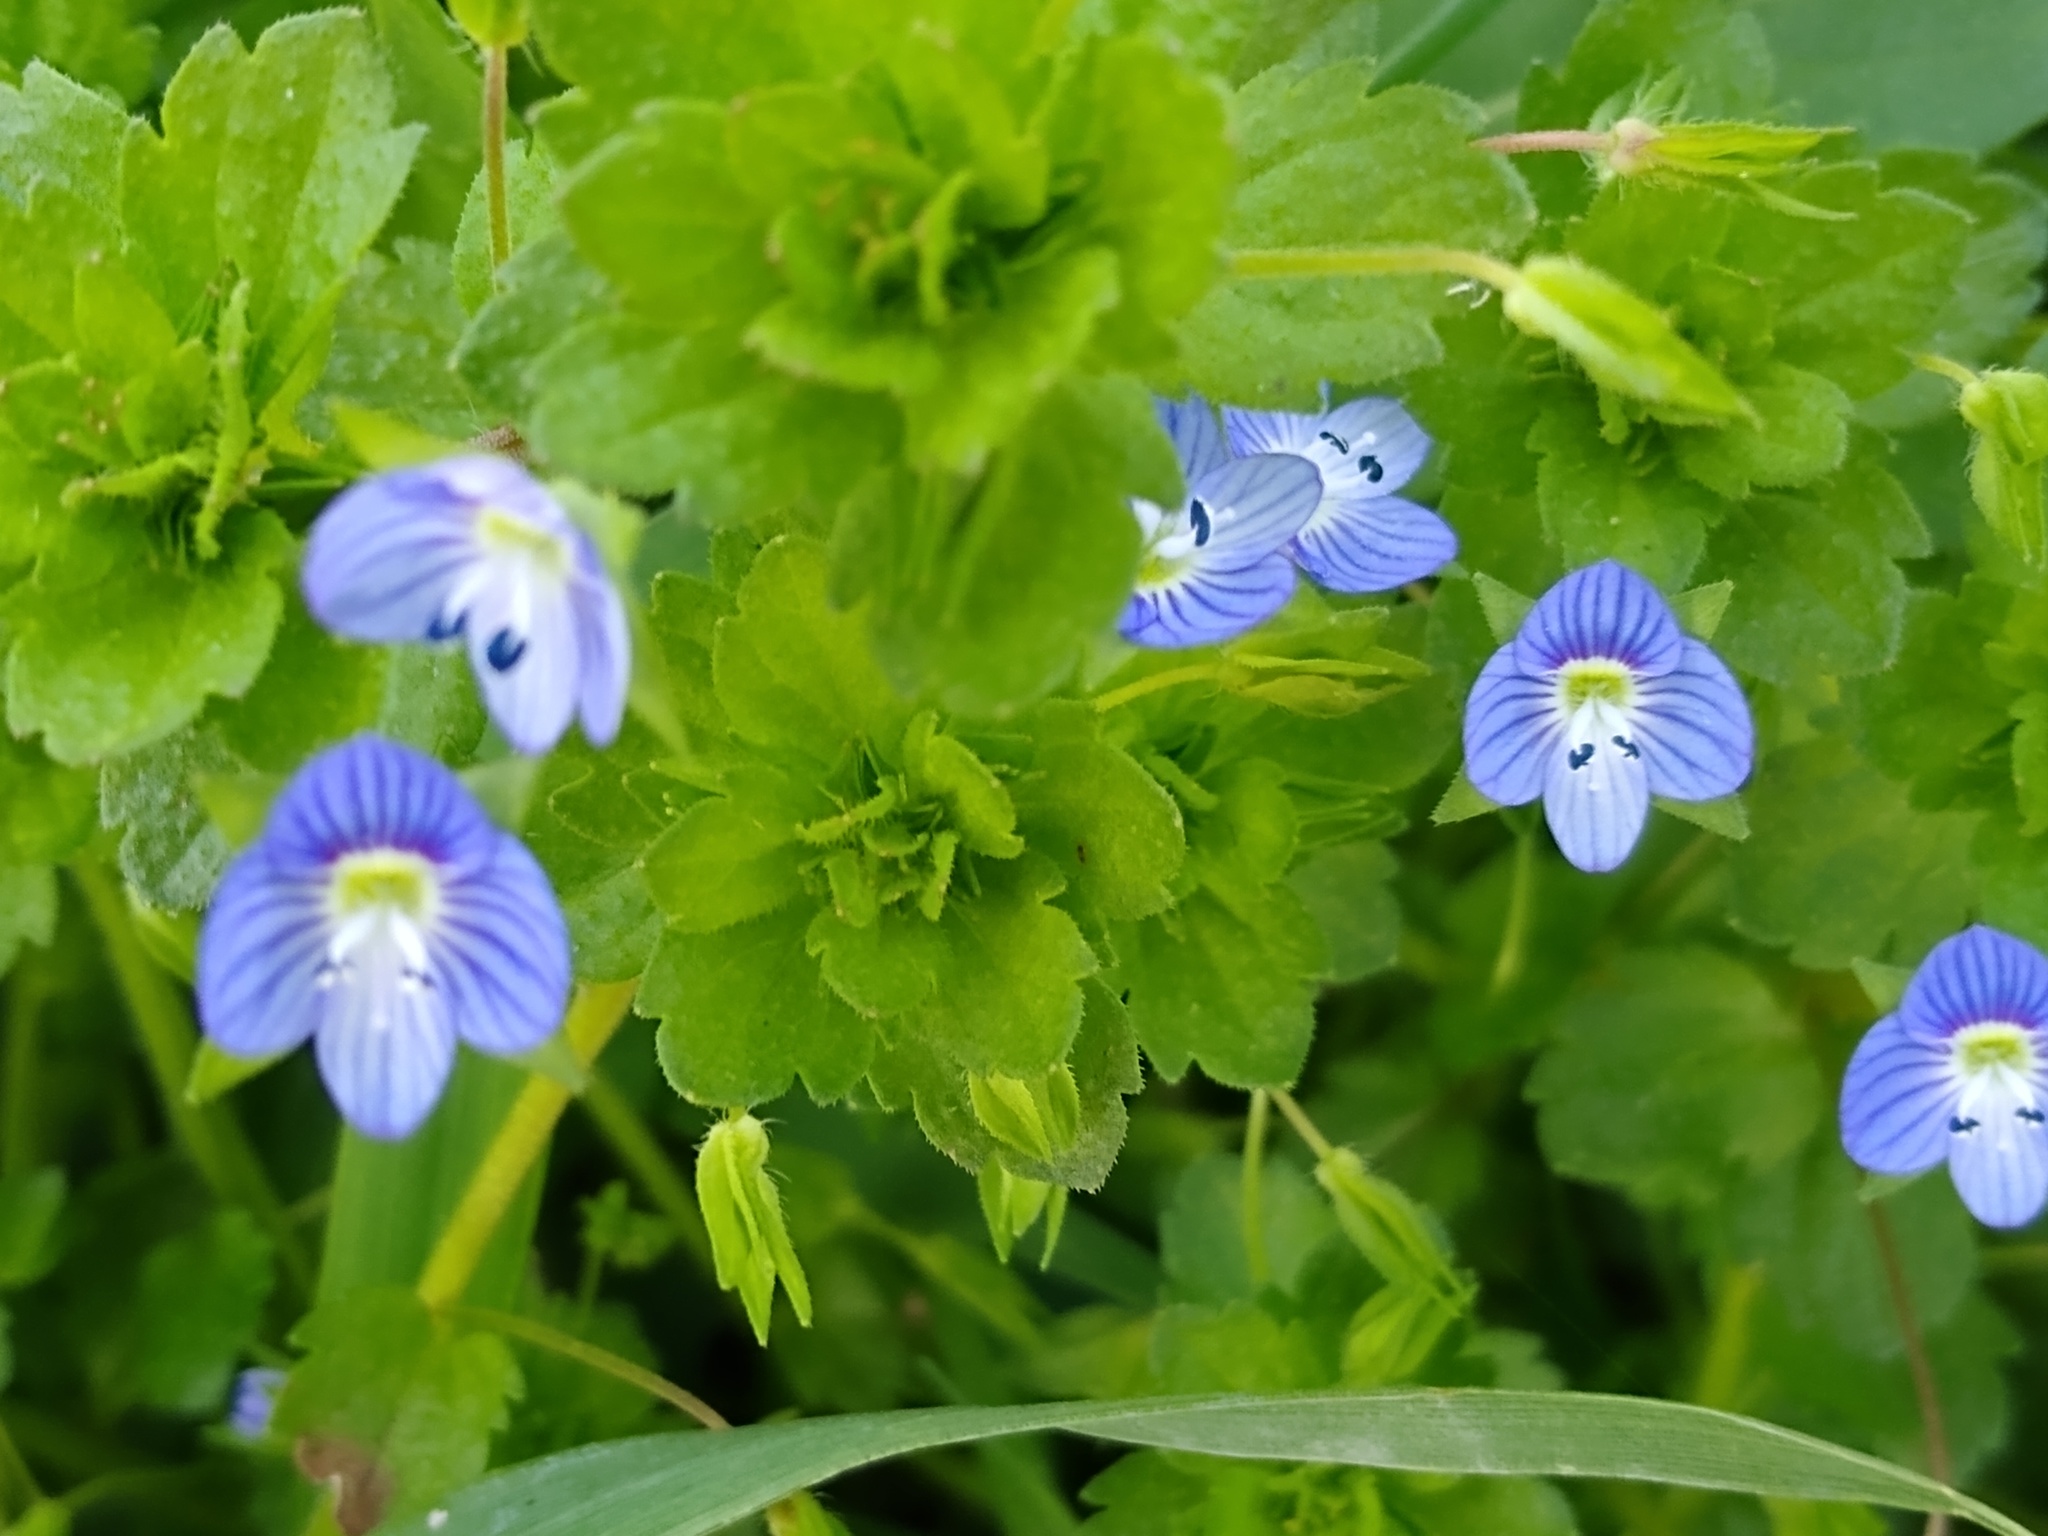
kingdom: Plantae
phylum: Tracheophyta
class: Magnoliopsida
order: Lamiales
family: Plantaginaceae
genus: Veronica
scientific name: Veronica persica
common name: Common field-speedwell
